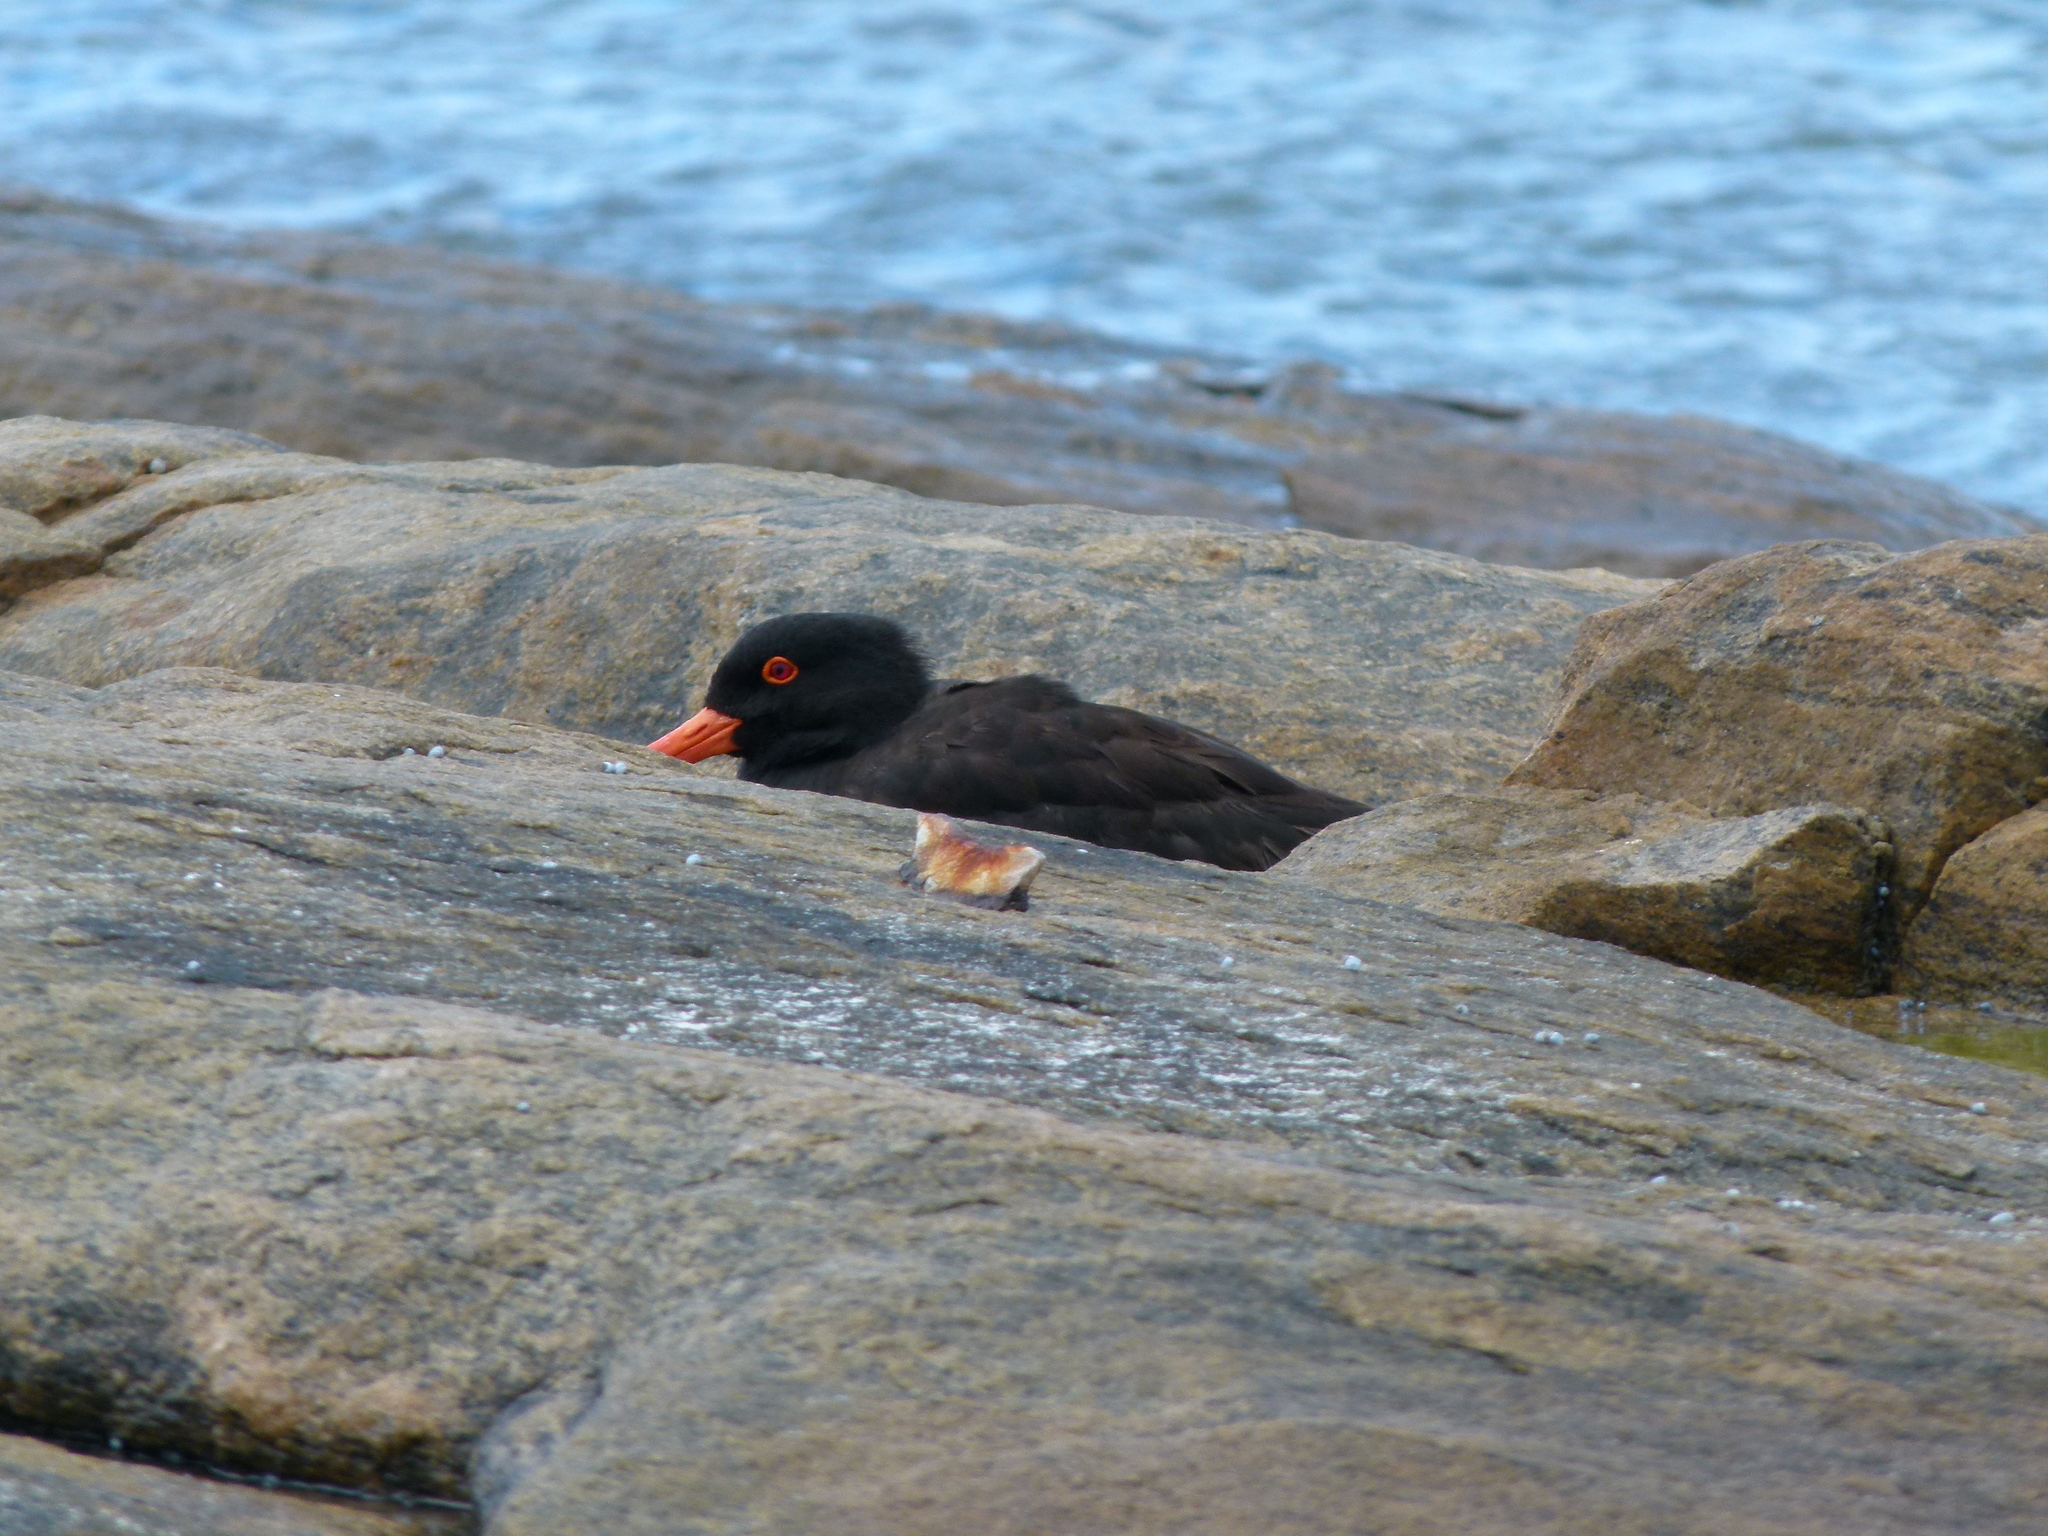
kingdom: Animalia
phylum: Chordata
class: Aves
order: Charadriiformes
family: Haematopodidae
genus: Haematopus
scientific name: Haematopus fuliginosus
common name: Sooty oystercatcher
